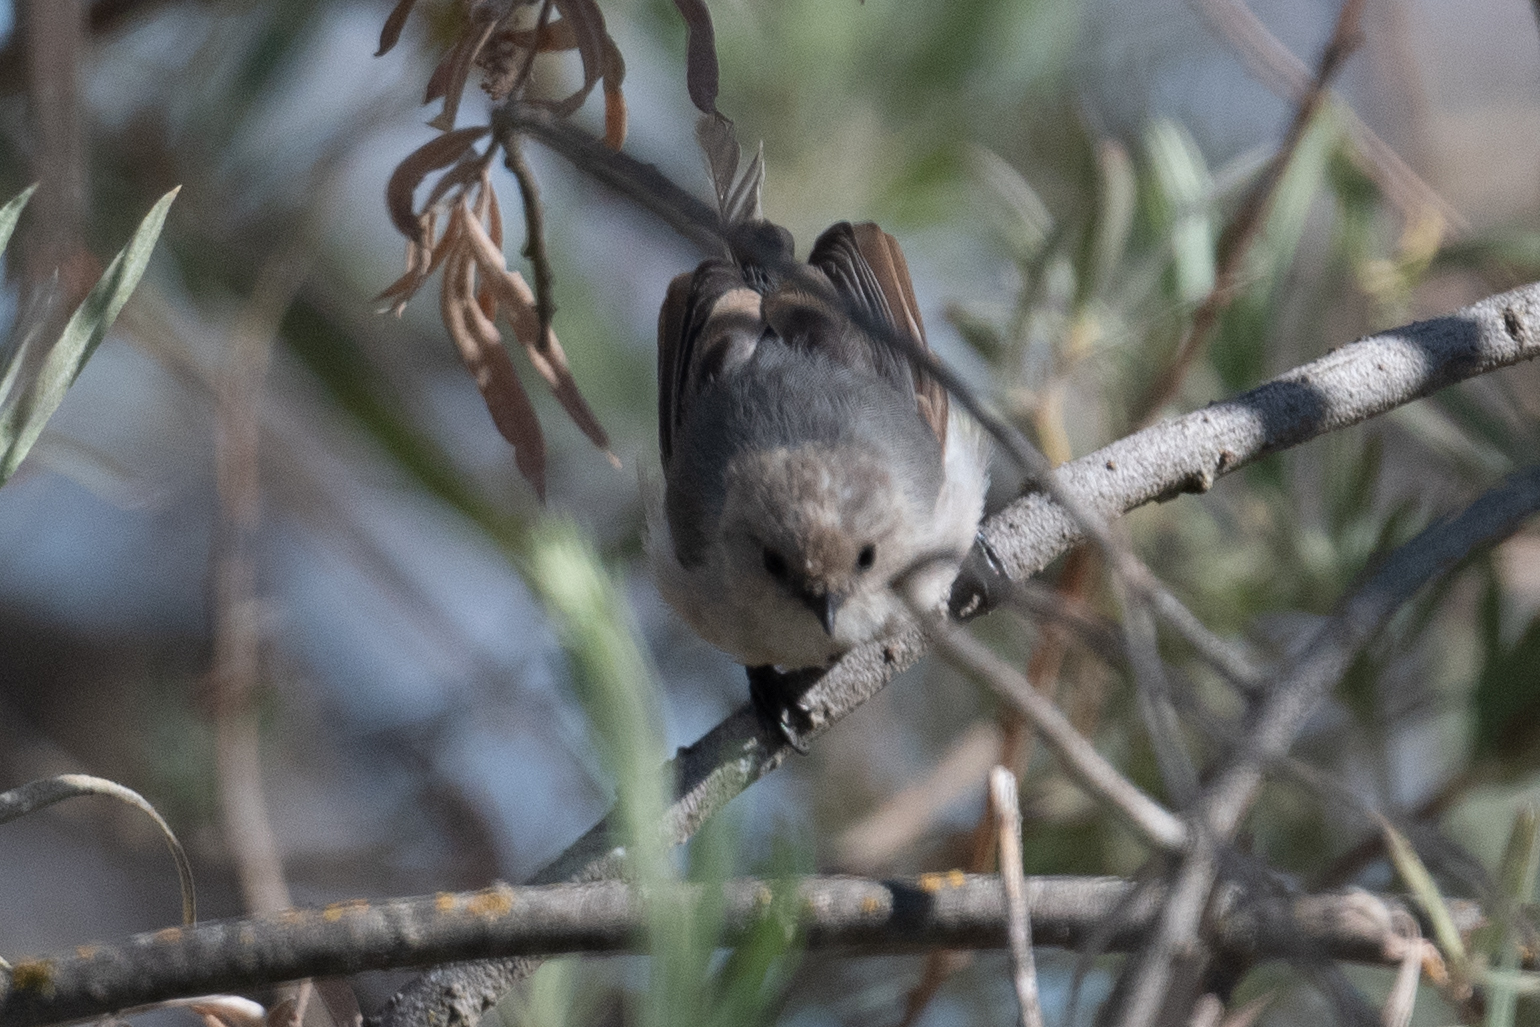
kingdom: Animalia
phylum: Chordata
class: Aves
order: Passeriformes
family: Aegithalidae
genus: Psaltriparus
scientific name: Psaltriparus minimus
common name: American bushtit
